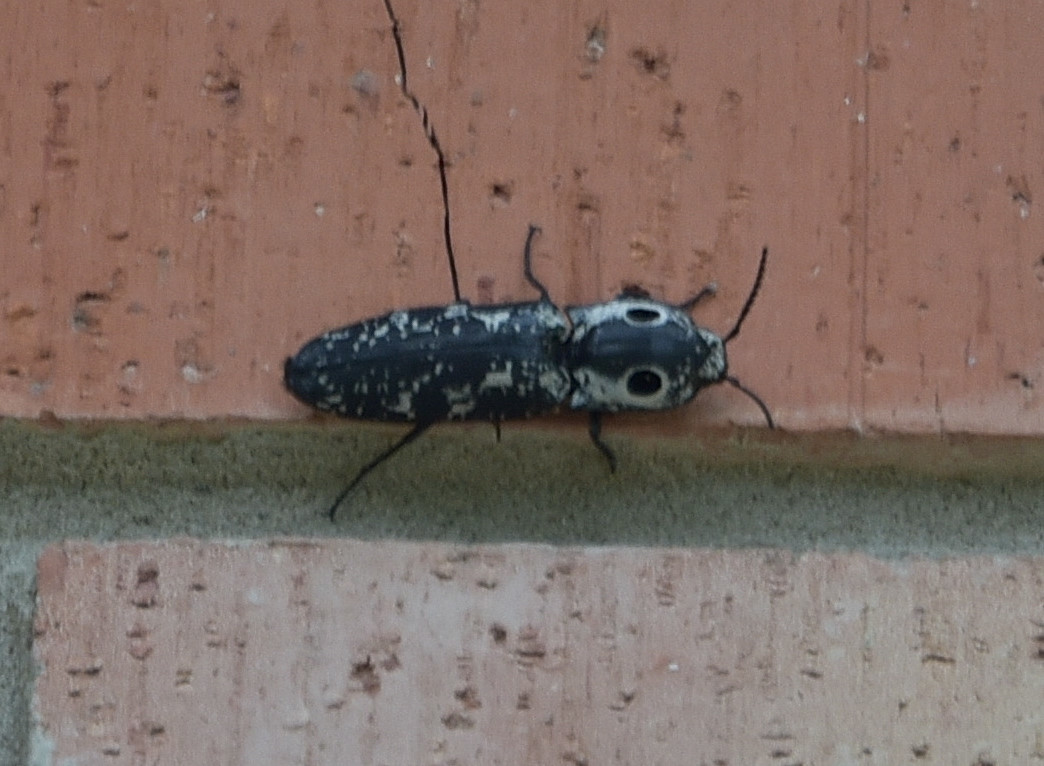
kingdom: Animalia
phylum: Arthropoda
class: Insecta
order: Coleoptera
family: Elateridae
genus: Alaus
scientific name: Alaus
